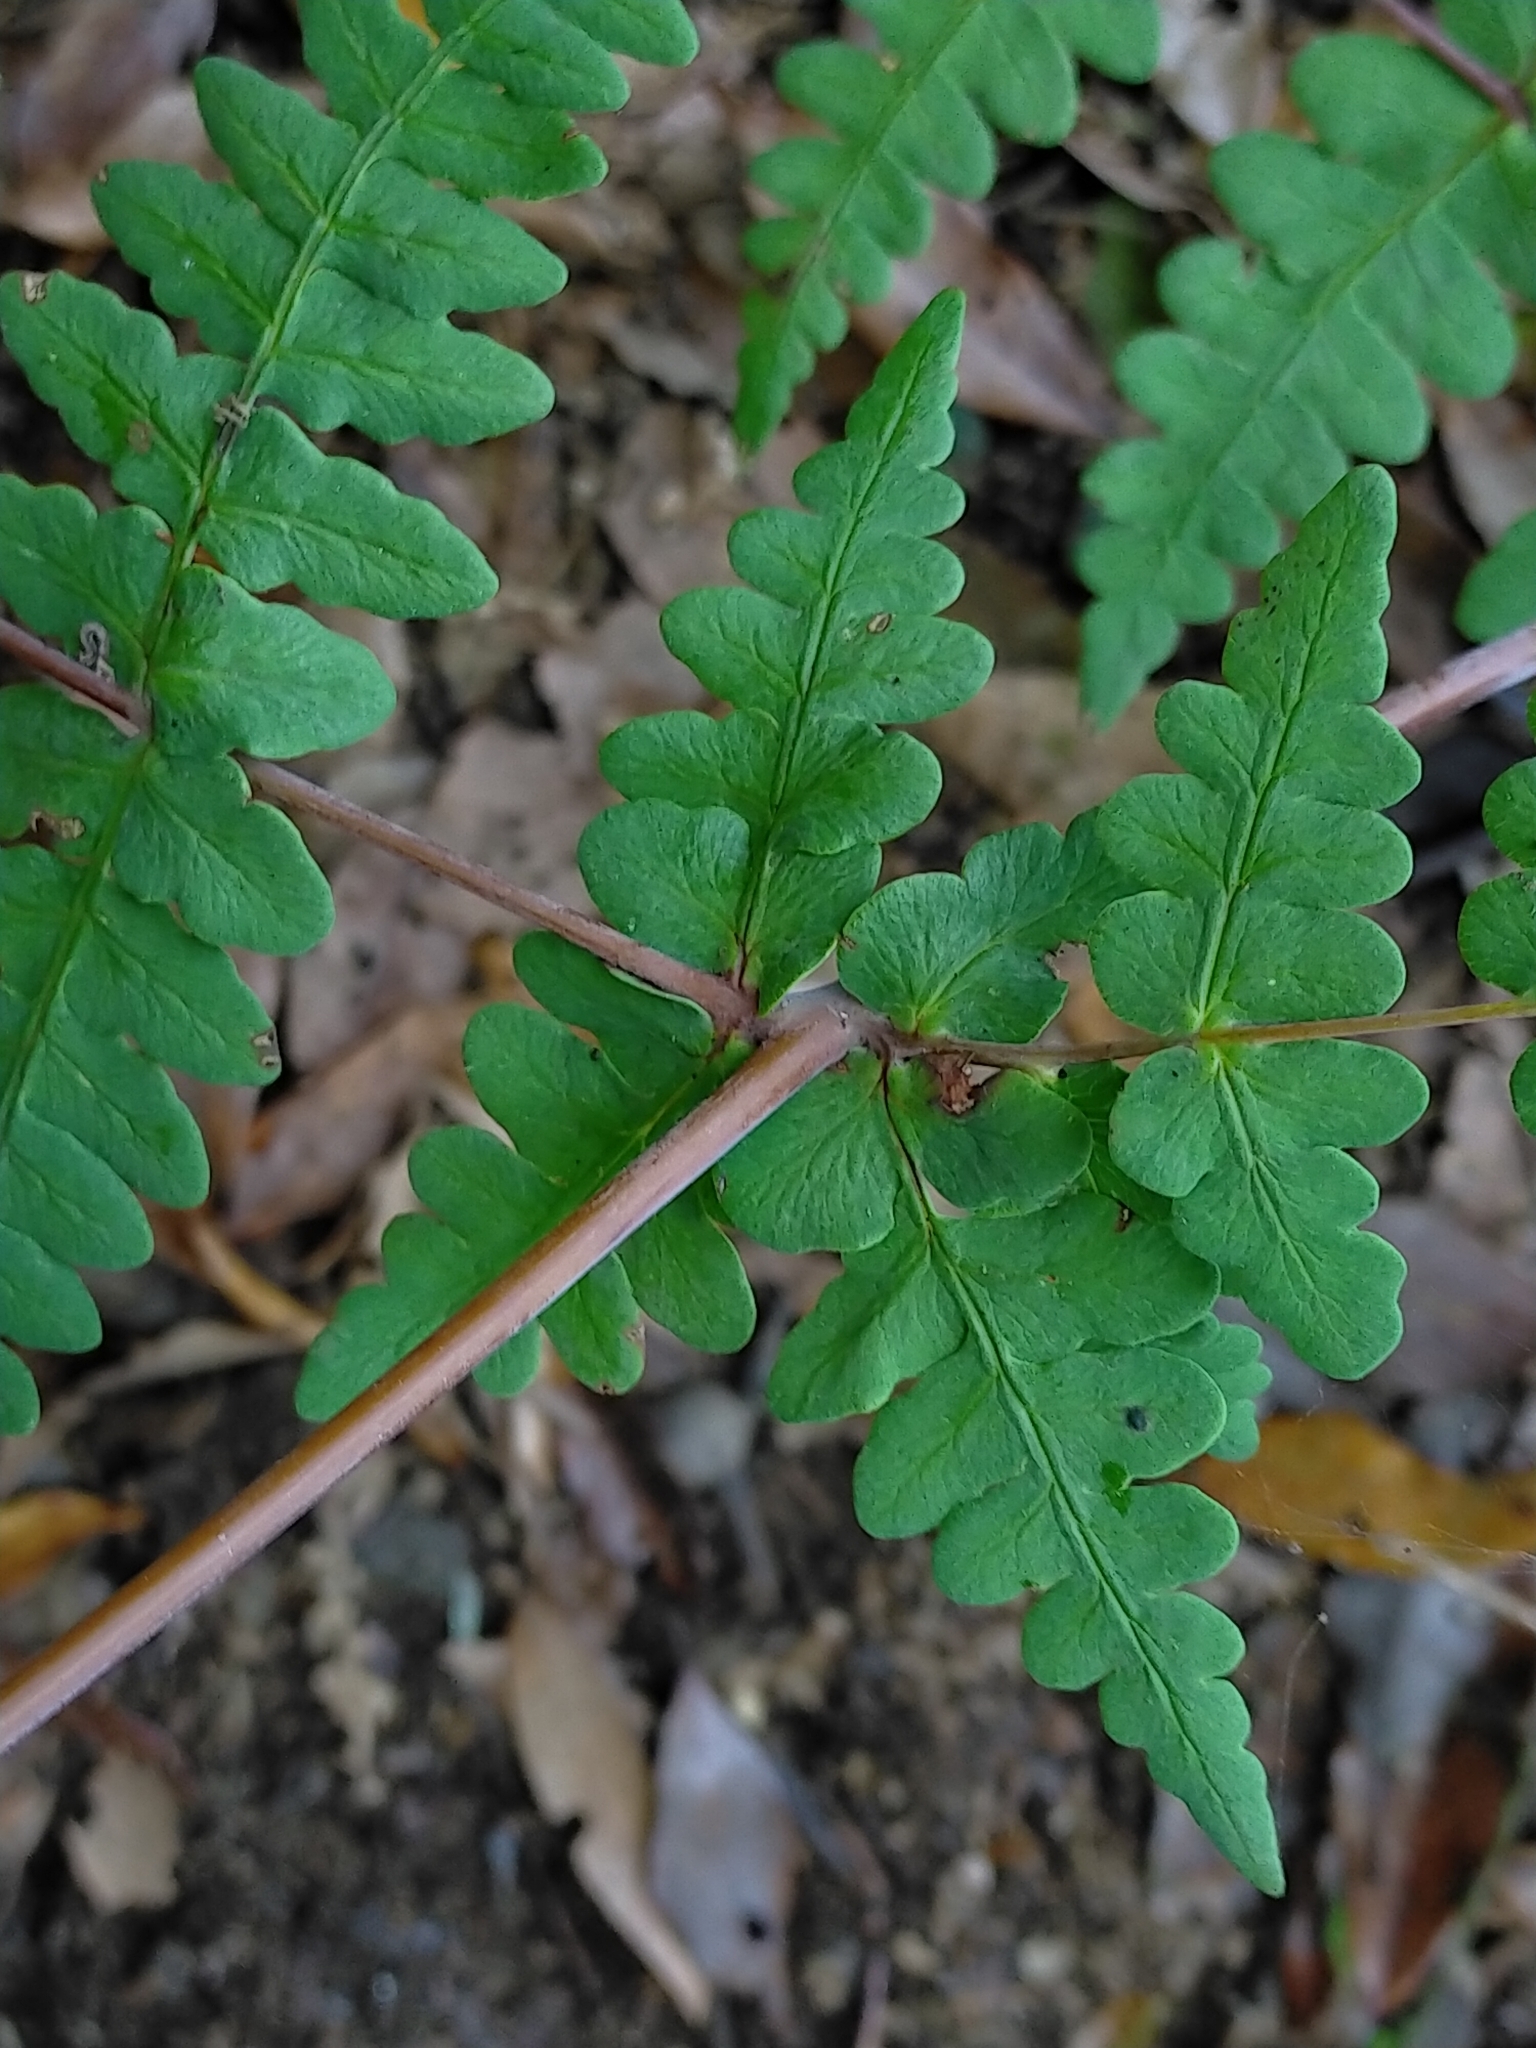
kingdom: Plantae
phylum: Tracheophyta
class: Polypodiopsida
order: Polypodiales
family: Dennstaedtiaceae
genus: Histiopteris
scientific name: Histiopteris incisa
